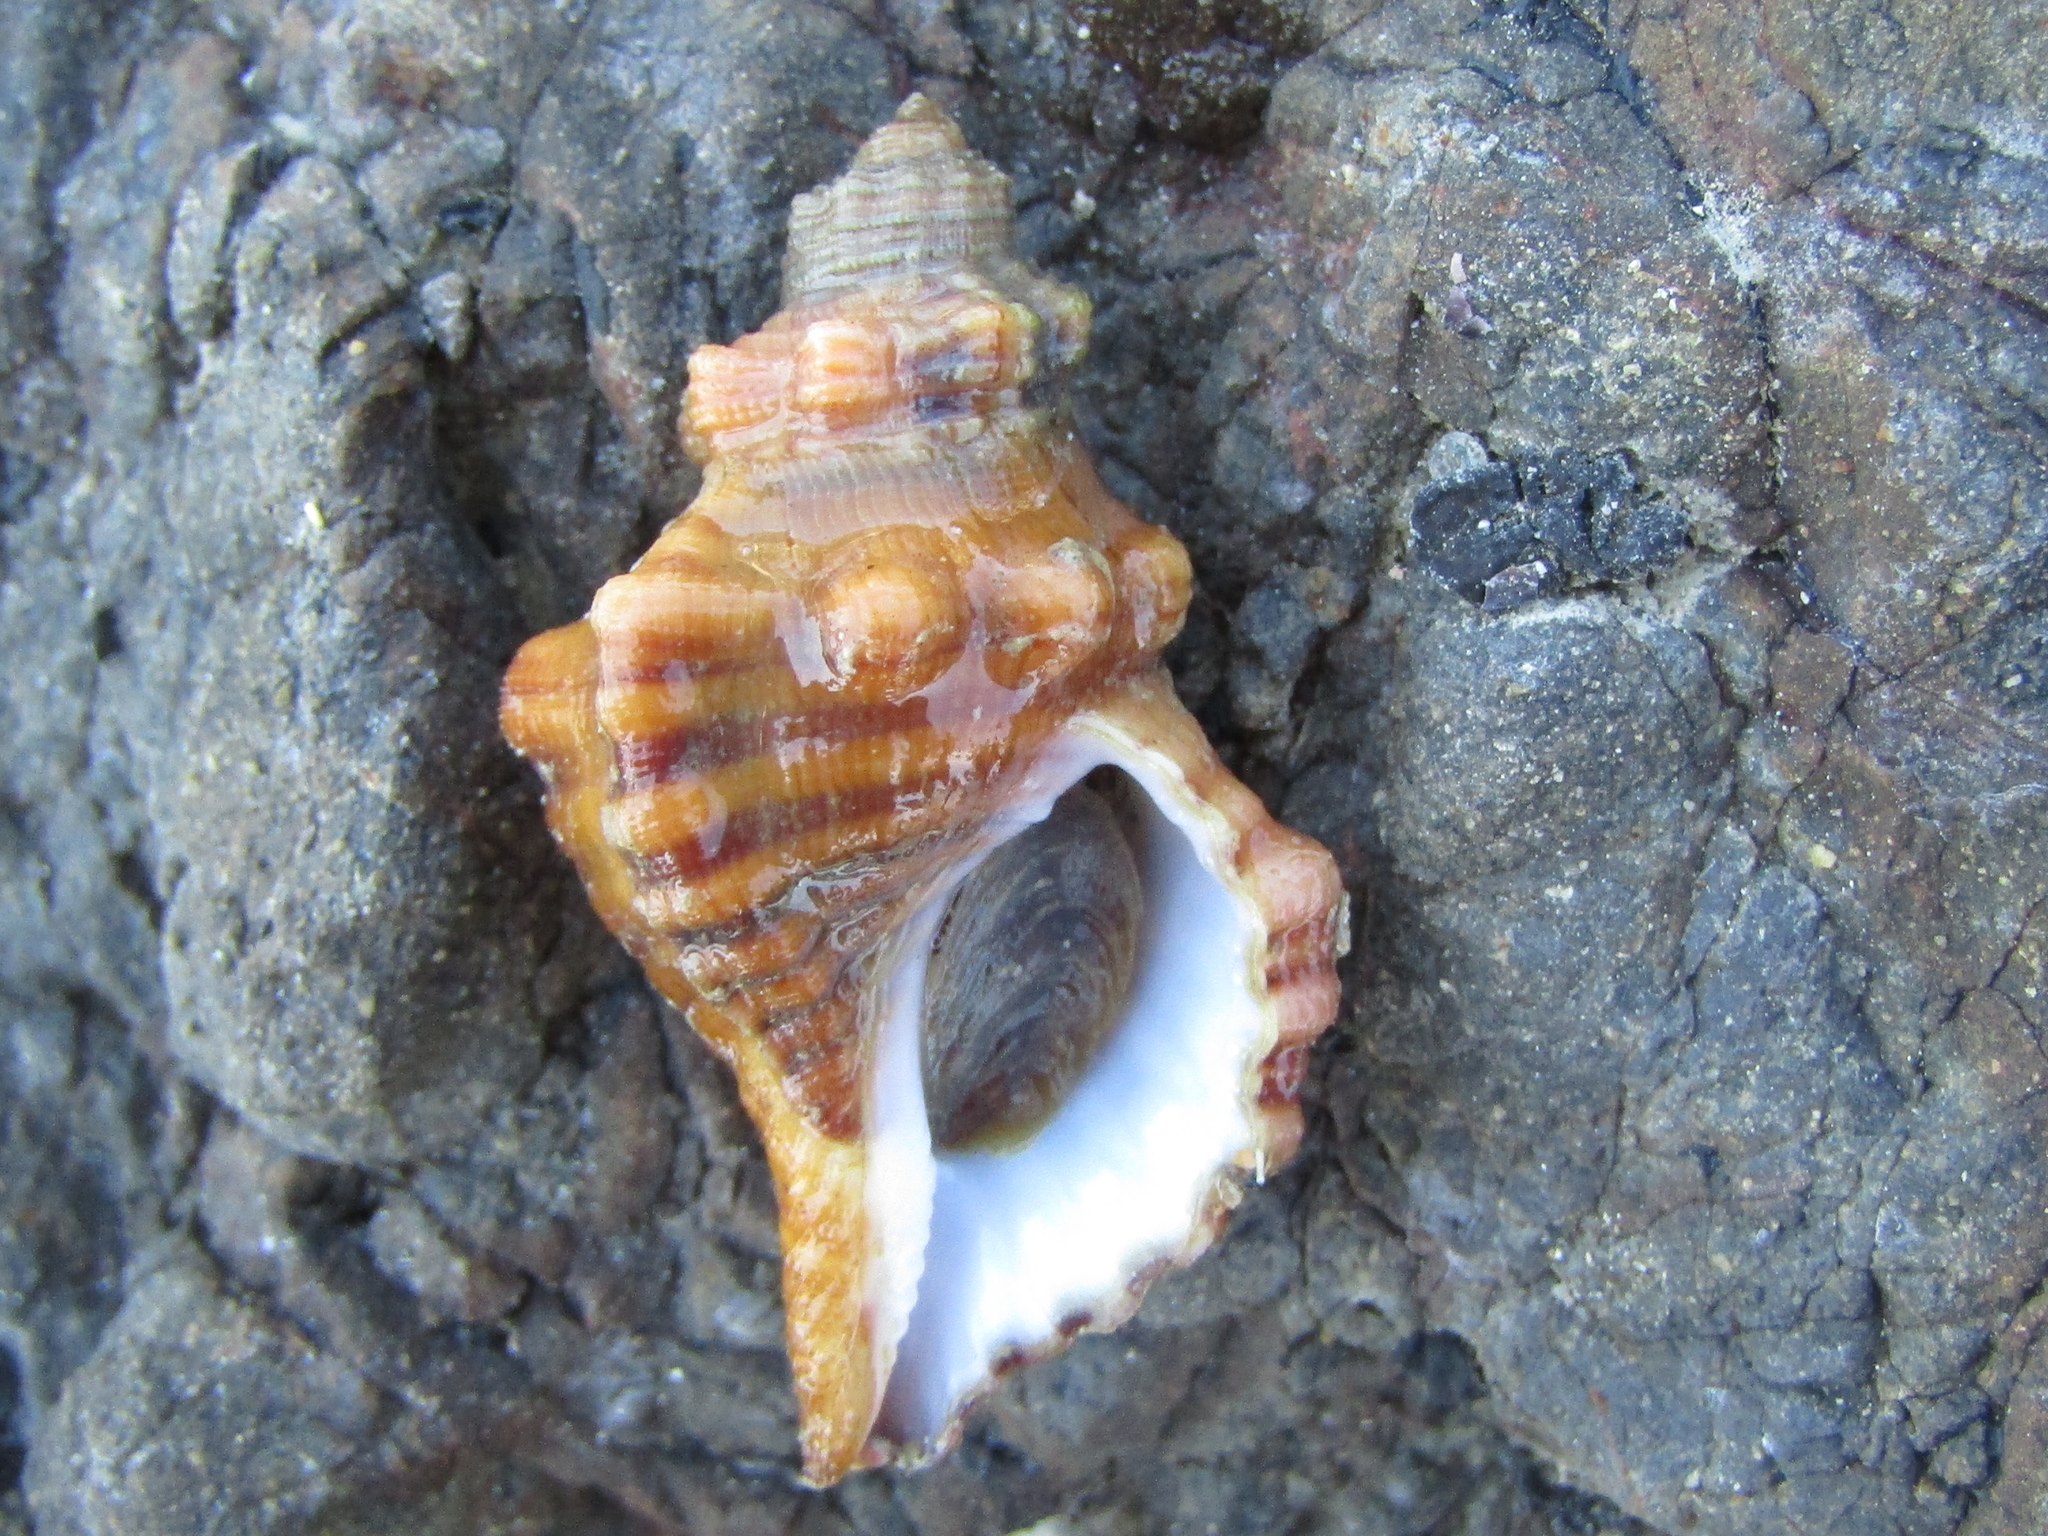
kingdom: Animalia
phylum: Mollusca
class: Gastropoda
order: Littorinimorpha
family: Cymatiidae
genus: Cabestana
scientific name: Cabestana spengleri
